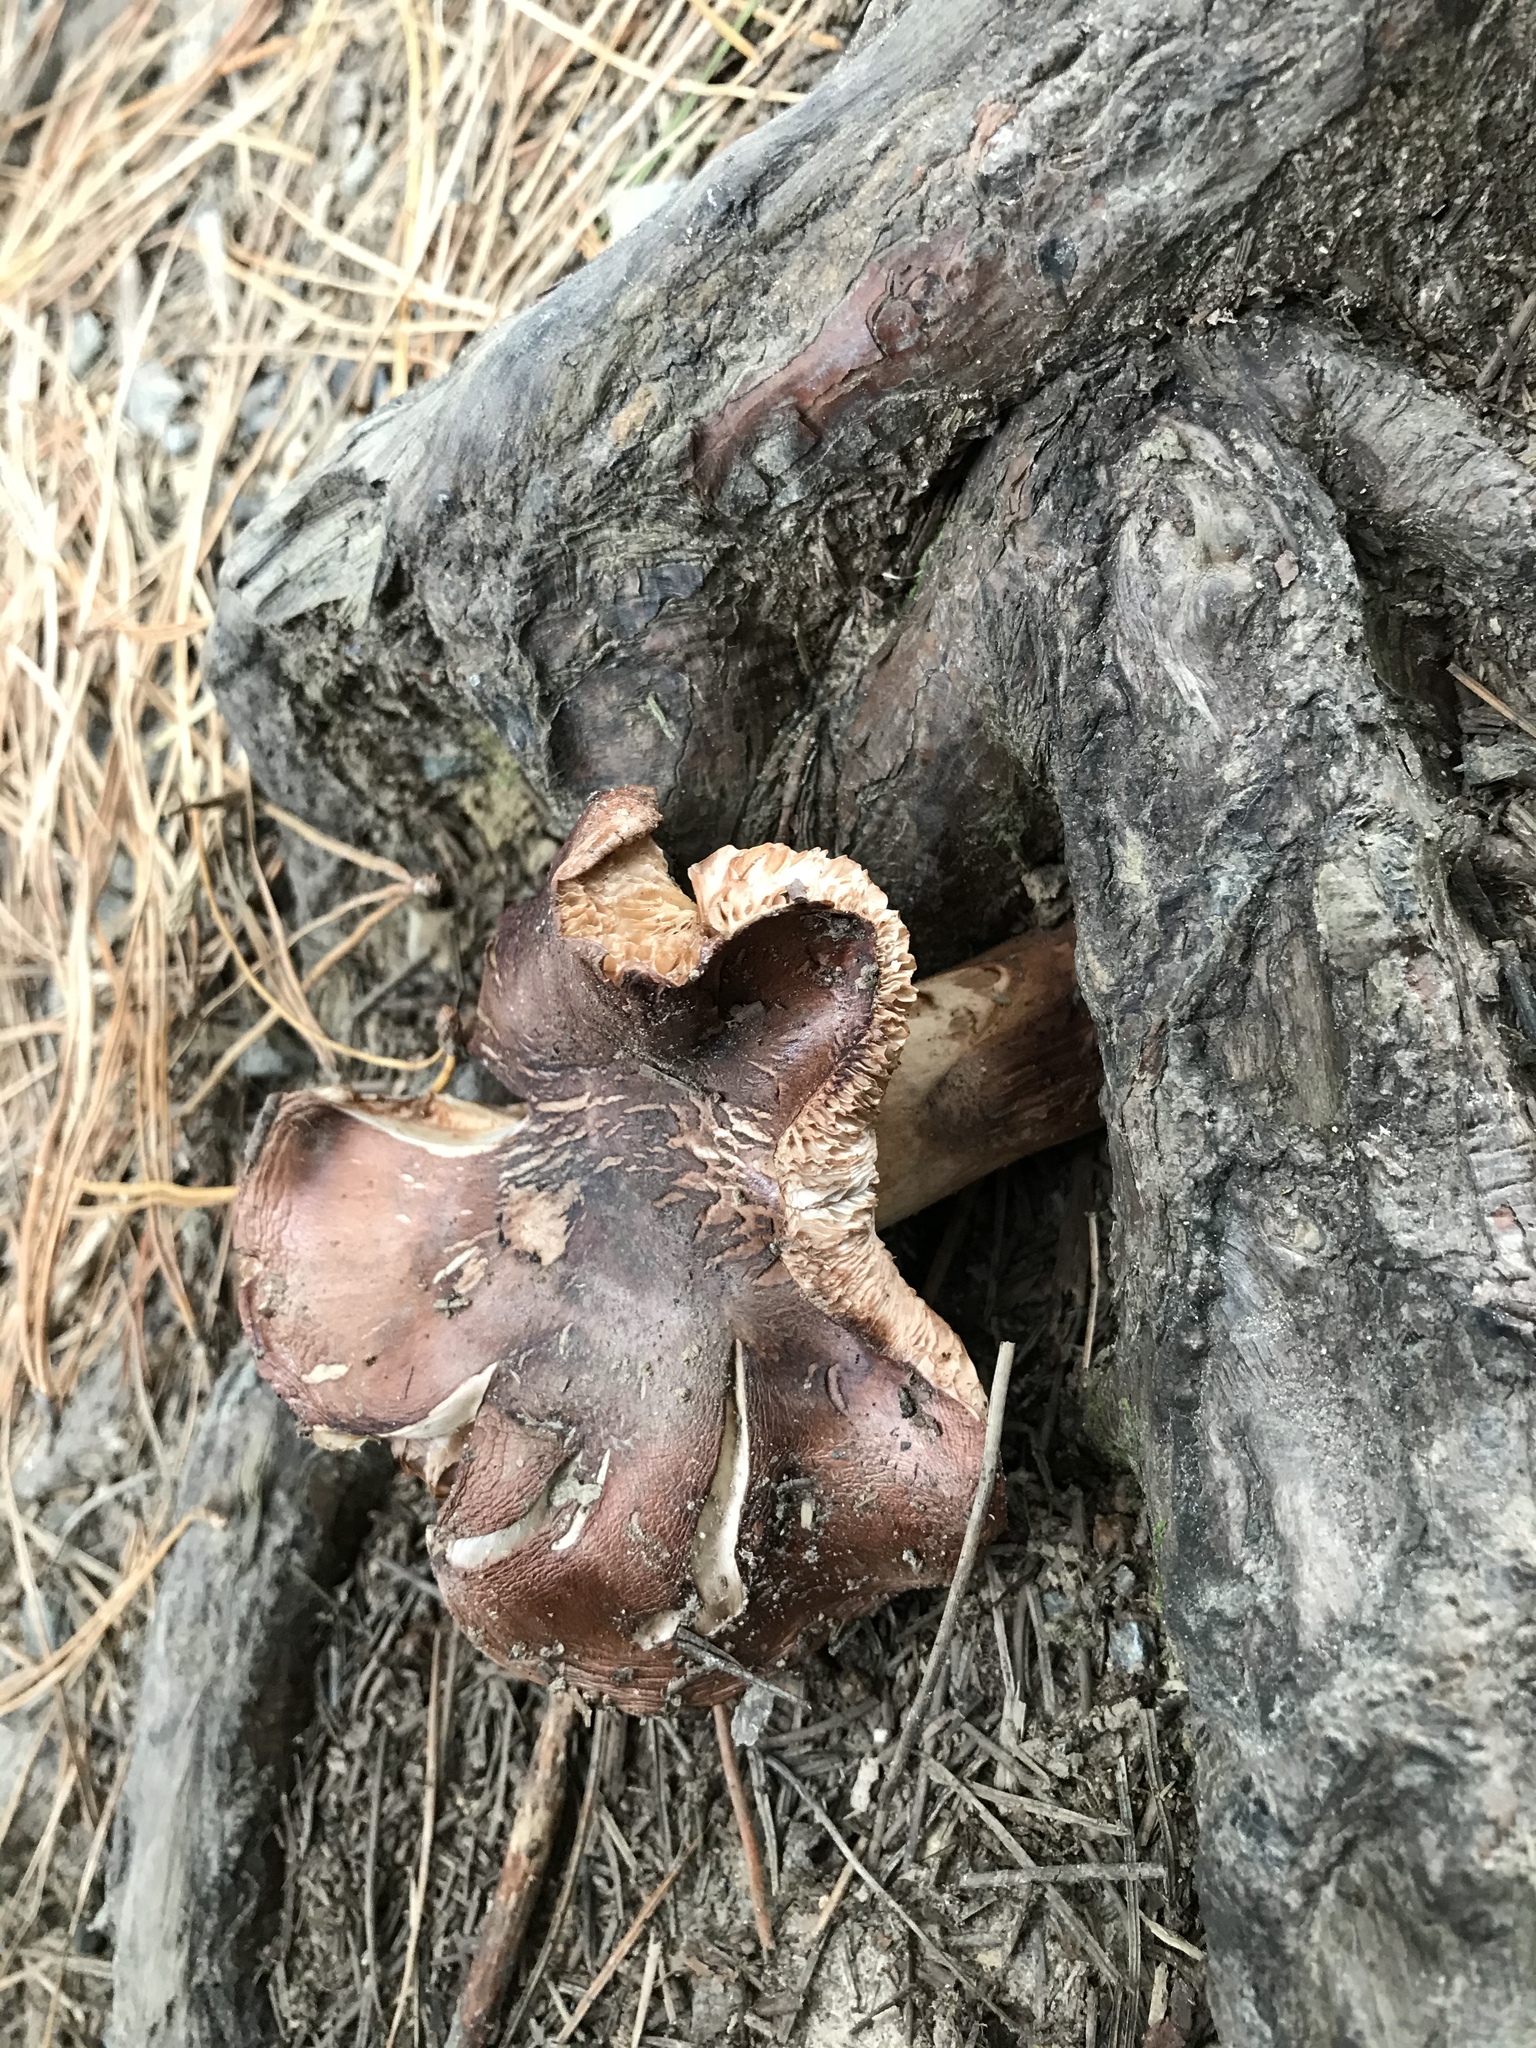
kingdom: Fungi
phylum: Basidiomycota
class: Agaricomycetes
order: Agaricales
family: Tricholomataceae
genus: Tricholoma
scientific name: Tricholoma batschii
